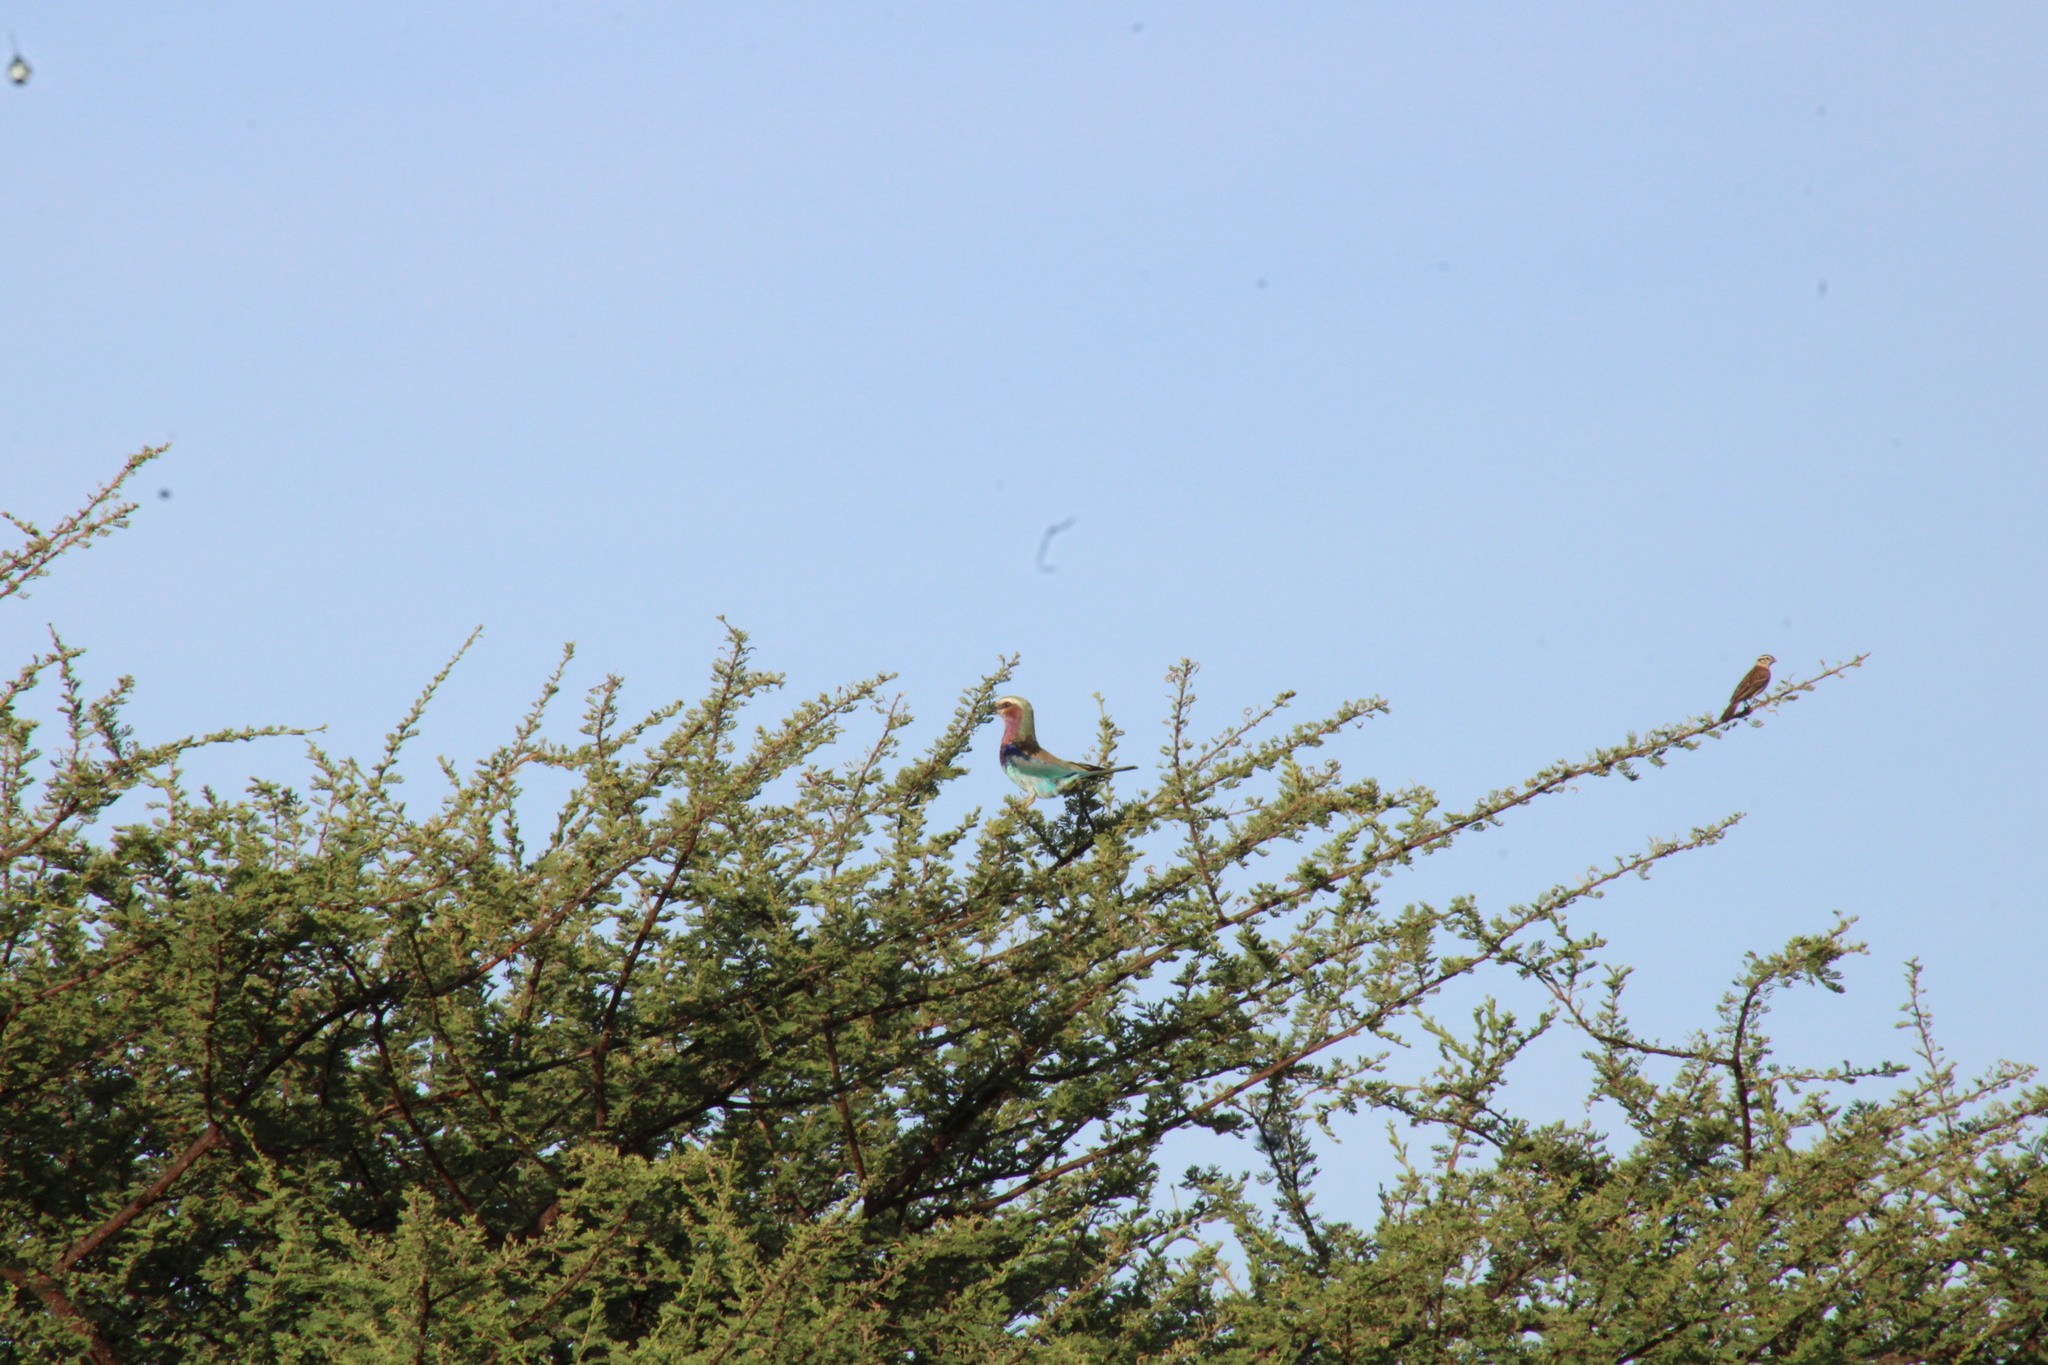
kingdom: Animalia
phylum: Chordata
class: Aves
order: Coraciiformes
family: Coraciidae
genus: Coracias
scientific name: Coracias caudatus
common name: Lilac-breasted roller
